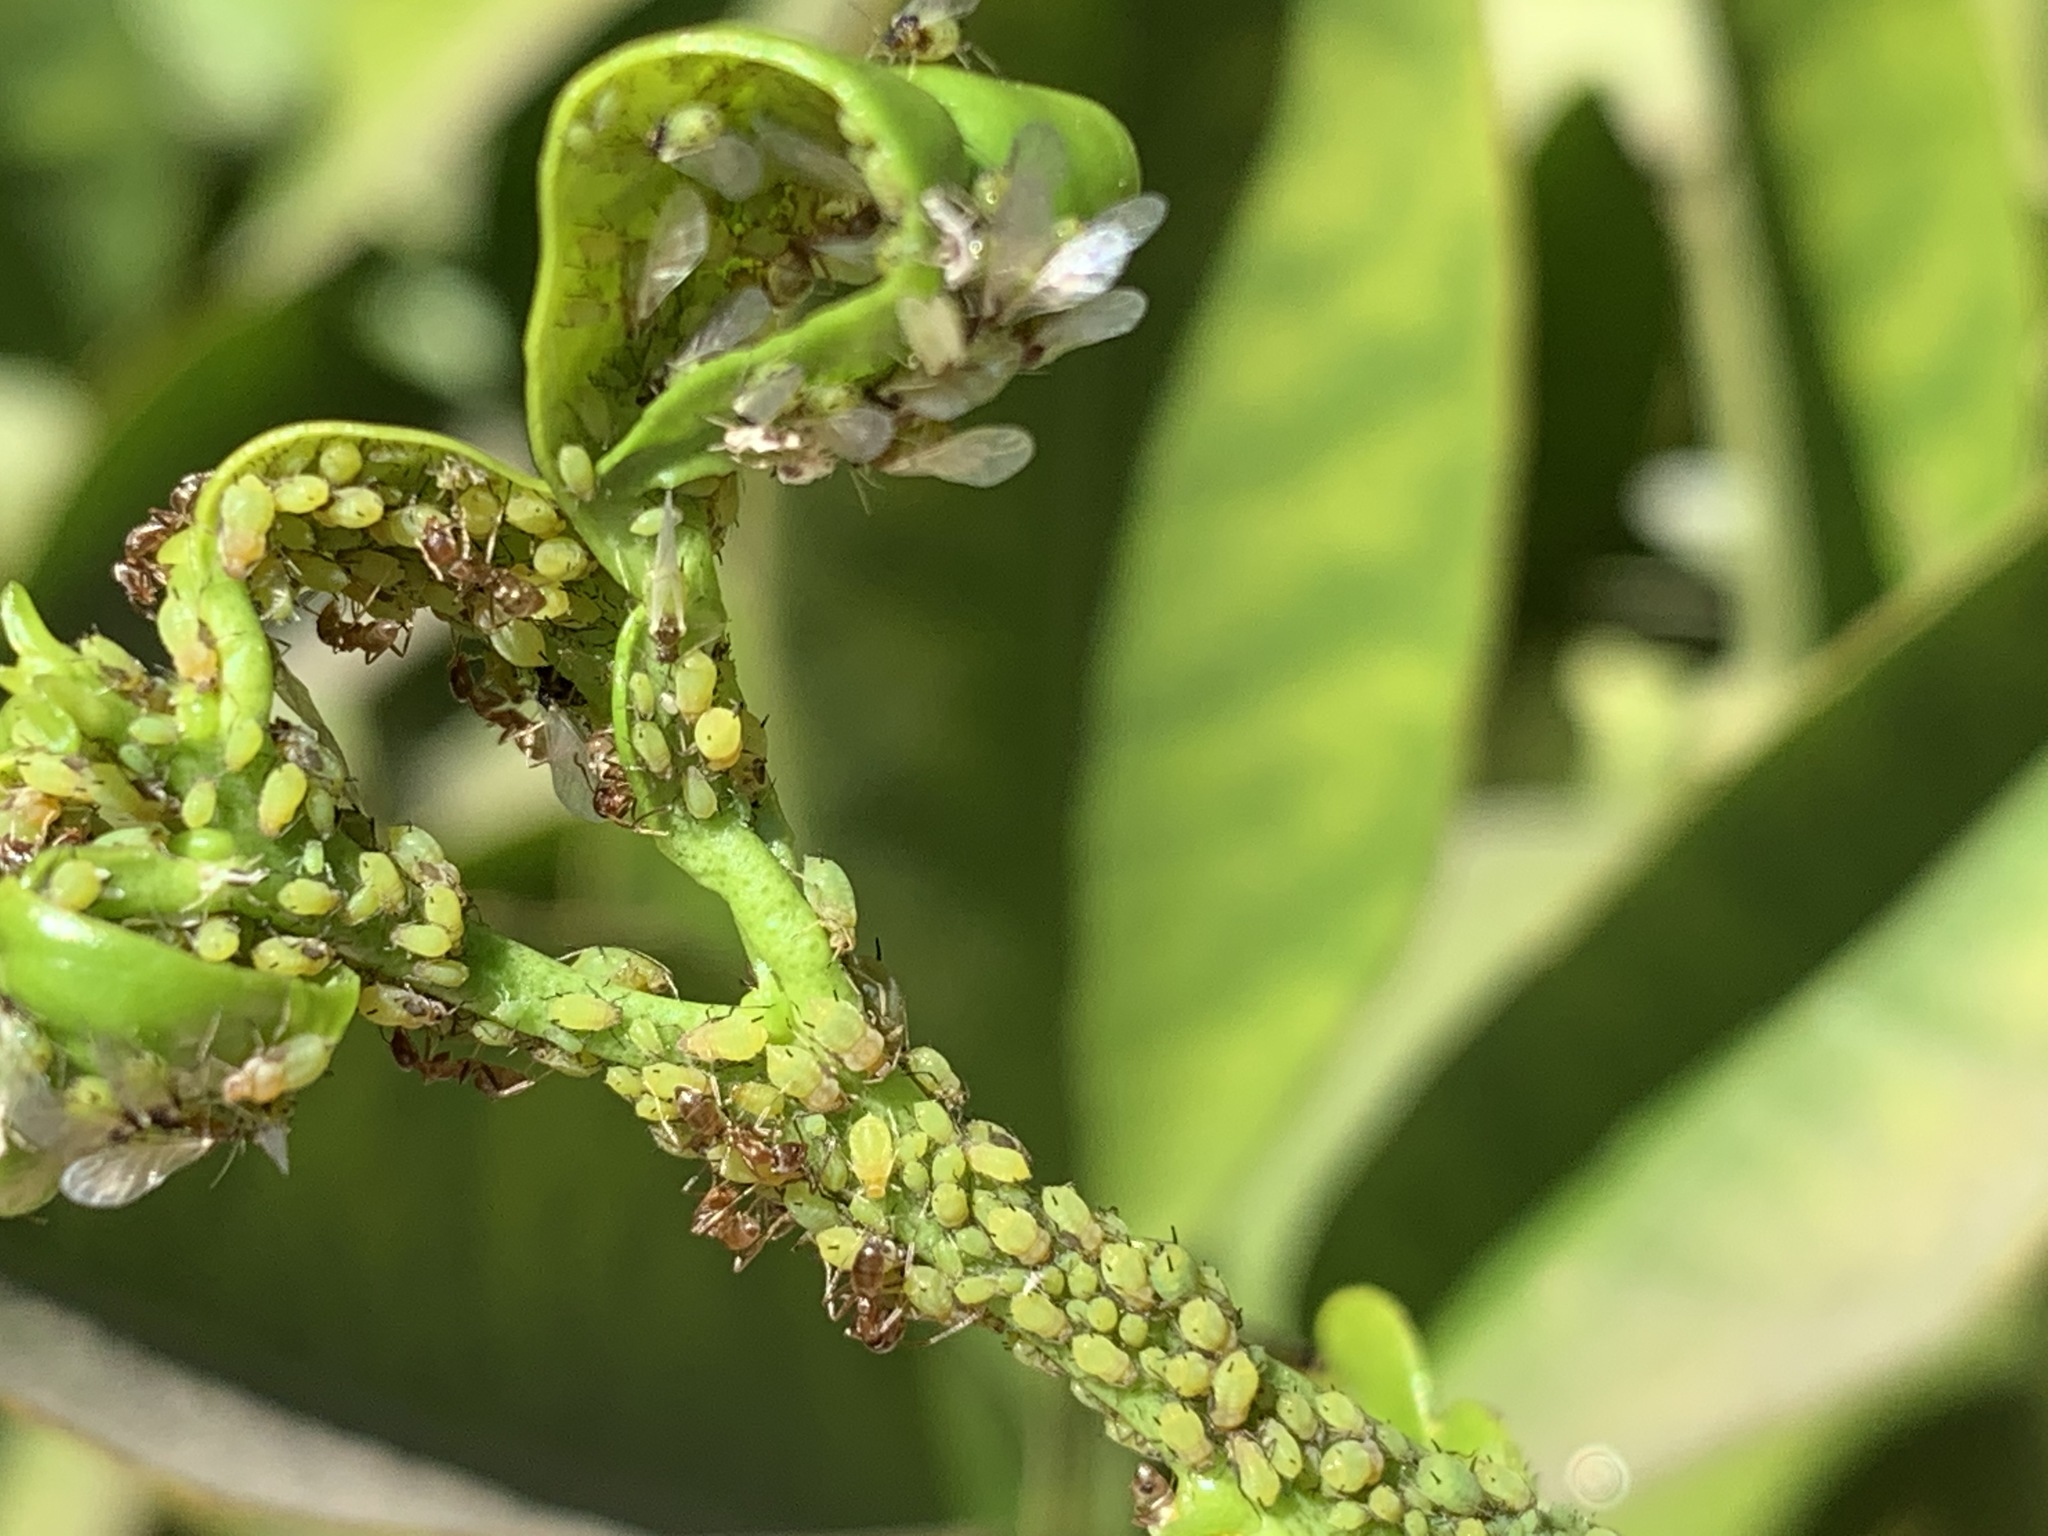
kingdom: Animalia
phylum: Arthropoda
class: Insecta
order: Hemiptera
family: Aphididae
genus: Aphis
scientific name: Aphis spiraecola
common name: Spirea aphid
